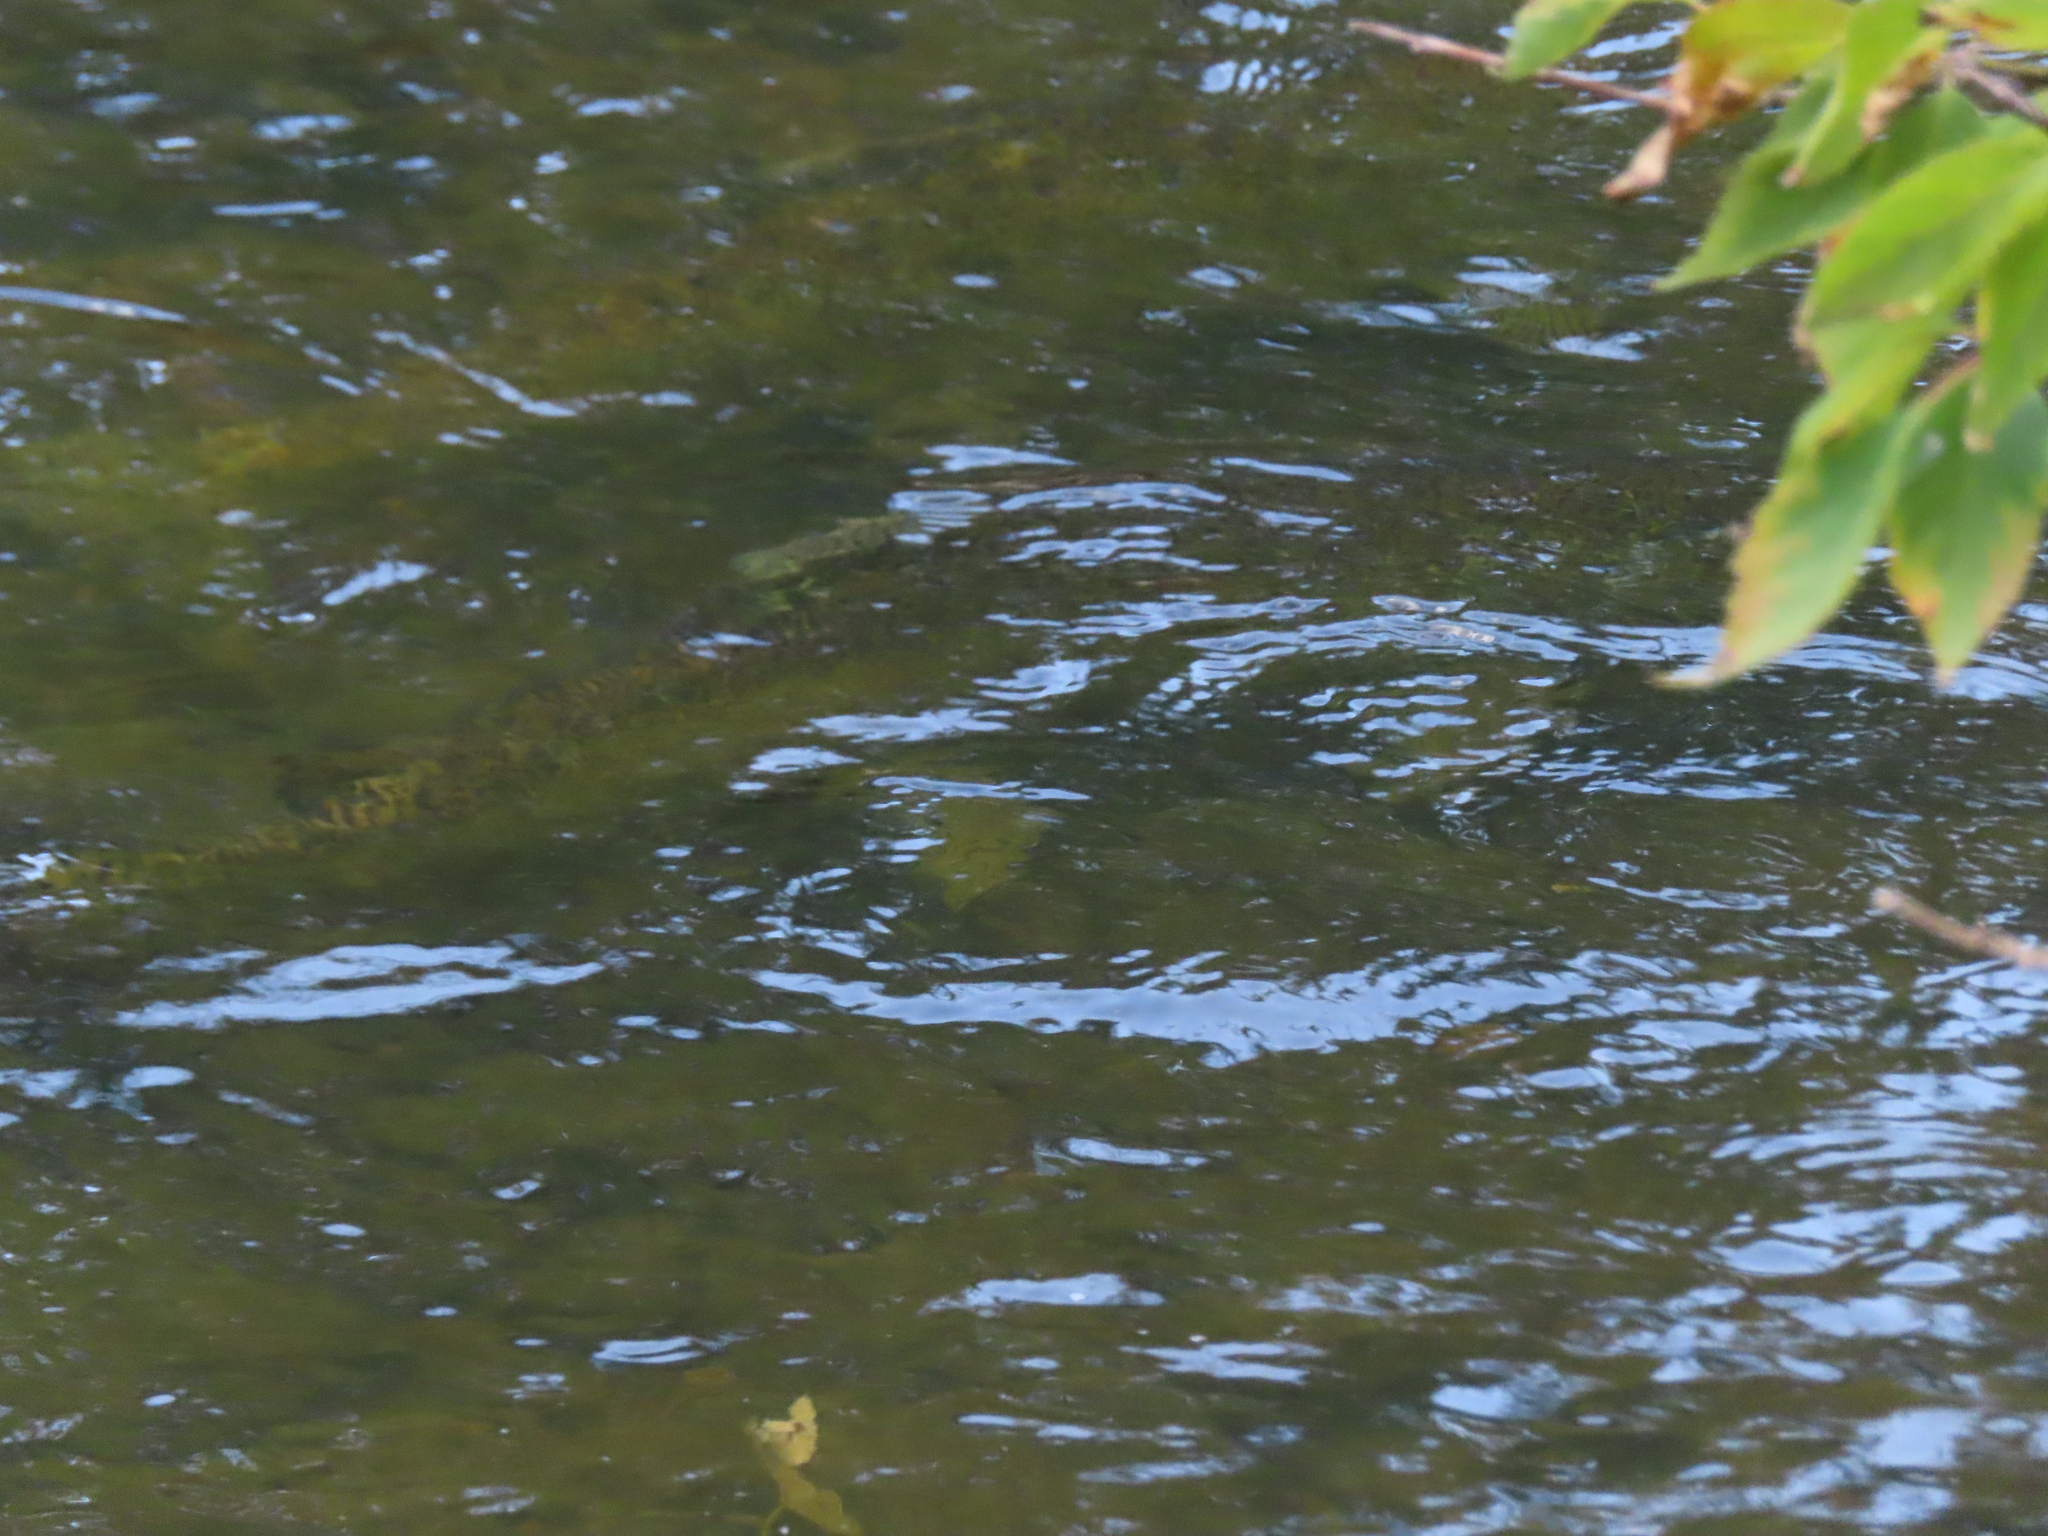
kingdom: Animalia
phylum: Chordata
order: Salmoniformes
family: Salmonidae
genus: Oncorhynchus
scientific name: Oncorhynchus tshawytscha
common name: Chinook salmon
